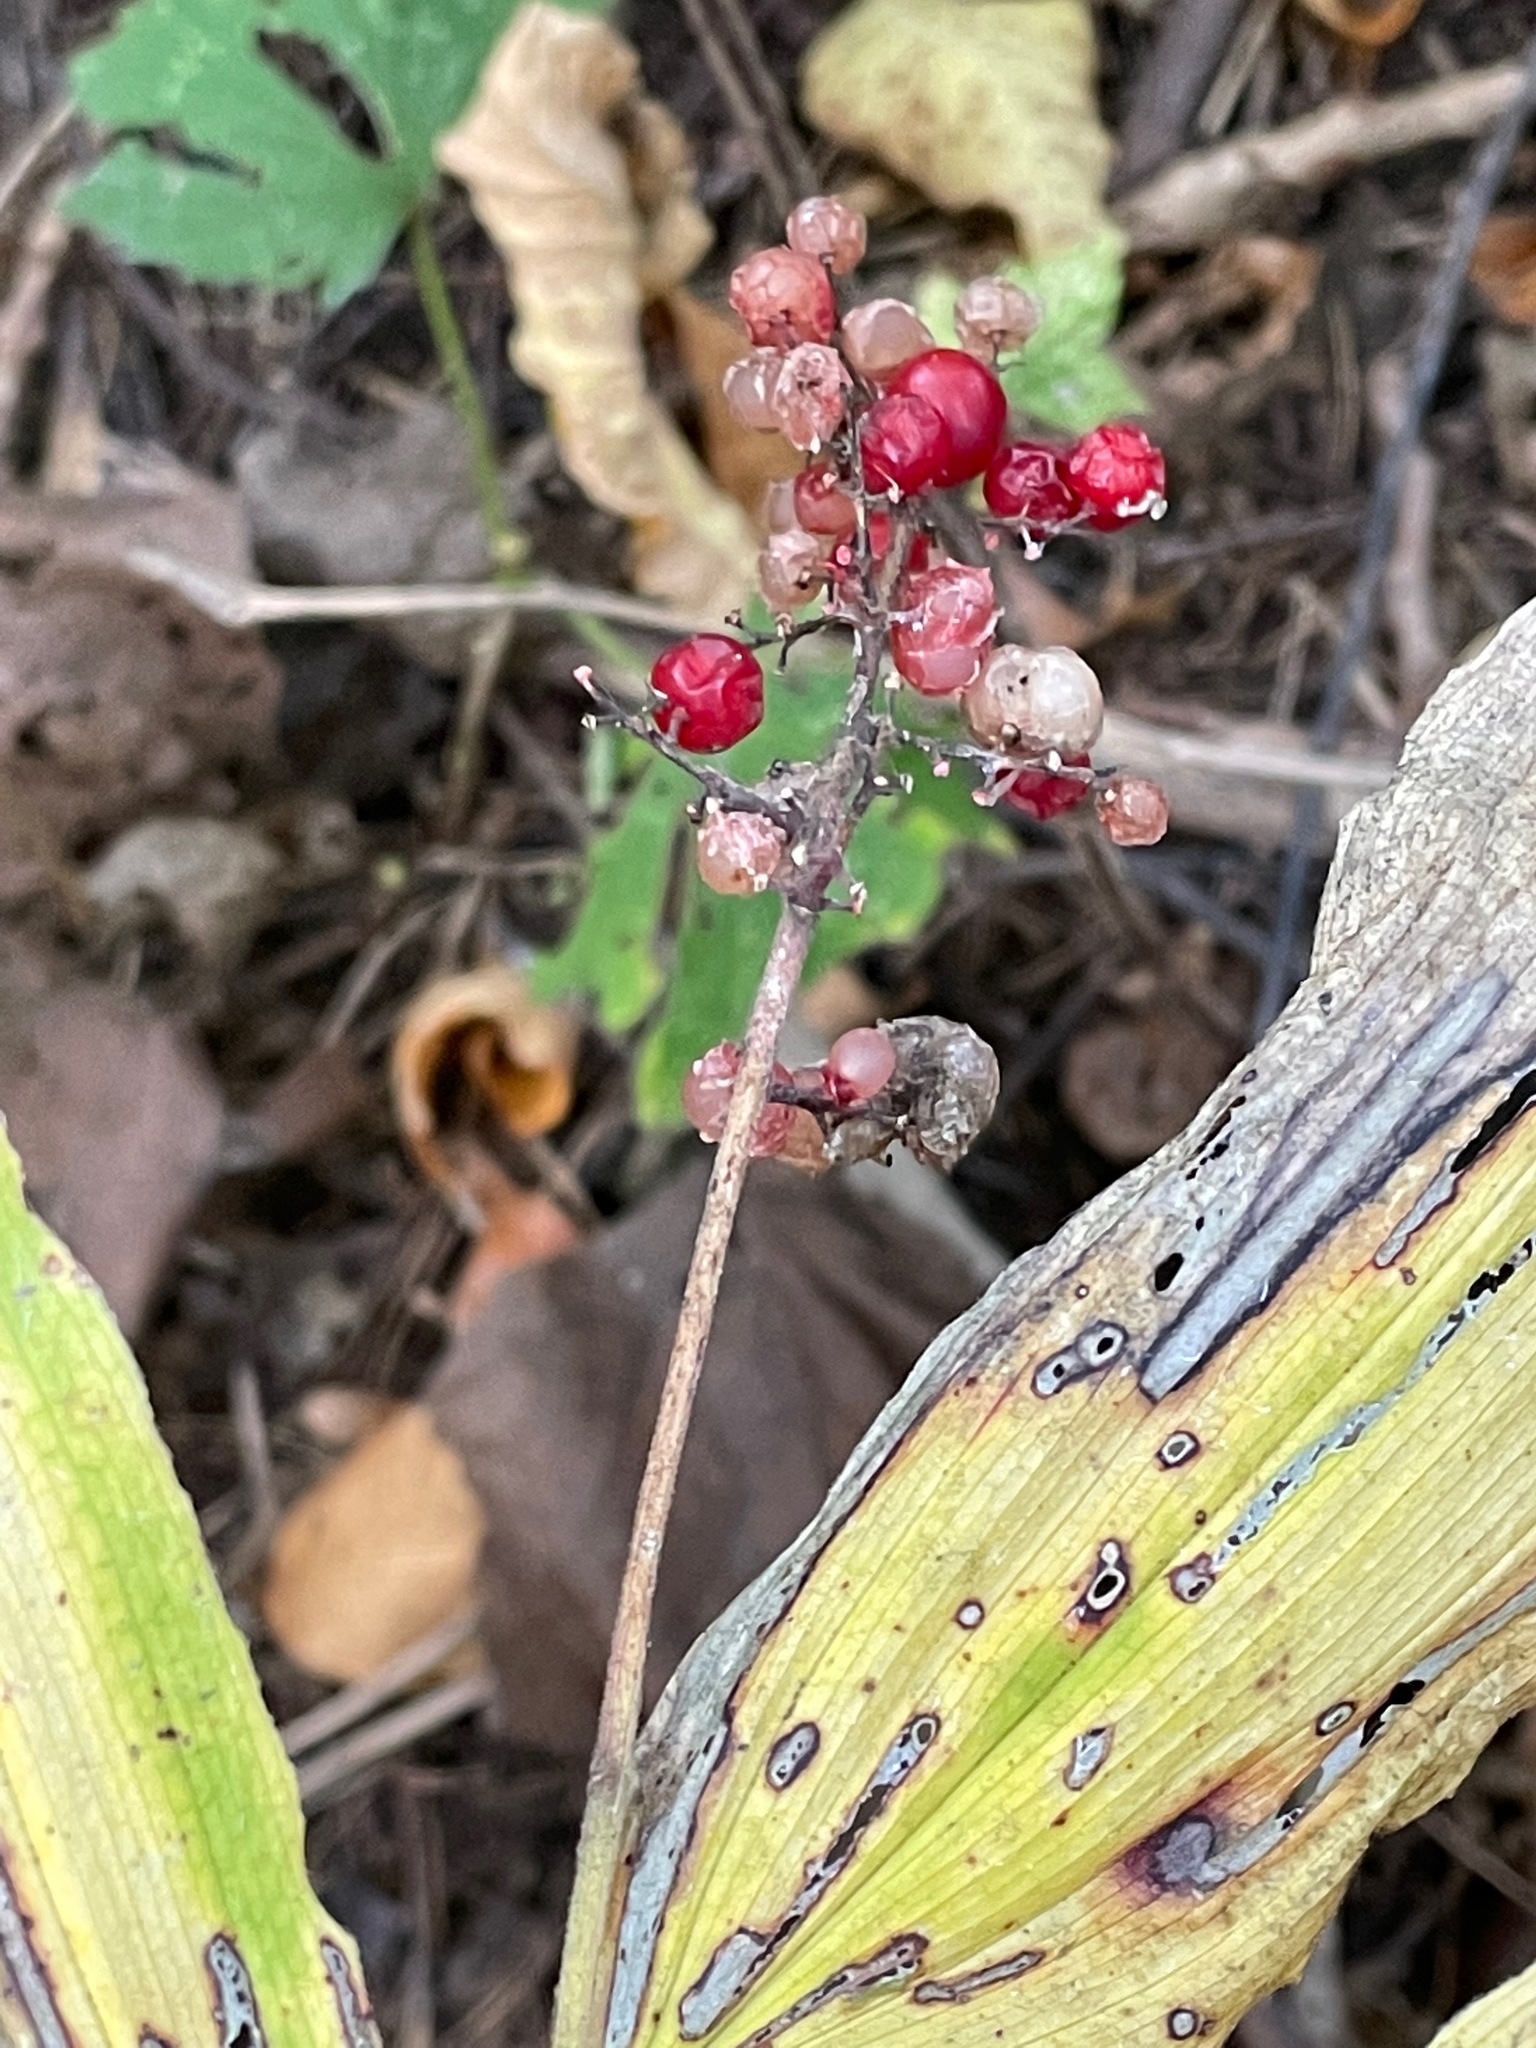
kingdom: Plantae
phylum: Tracheophyta
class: Liliopsida
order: Asparagales
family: Asparagaceae
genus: Maianthemum
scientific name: Maianthemum racemosum
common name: False spikenard
